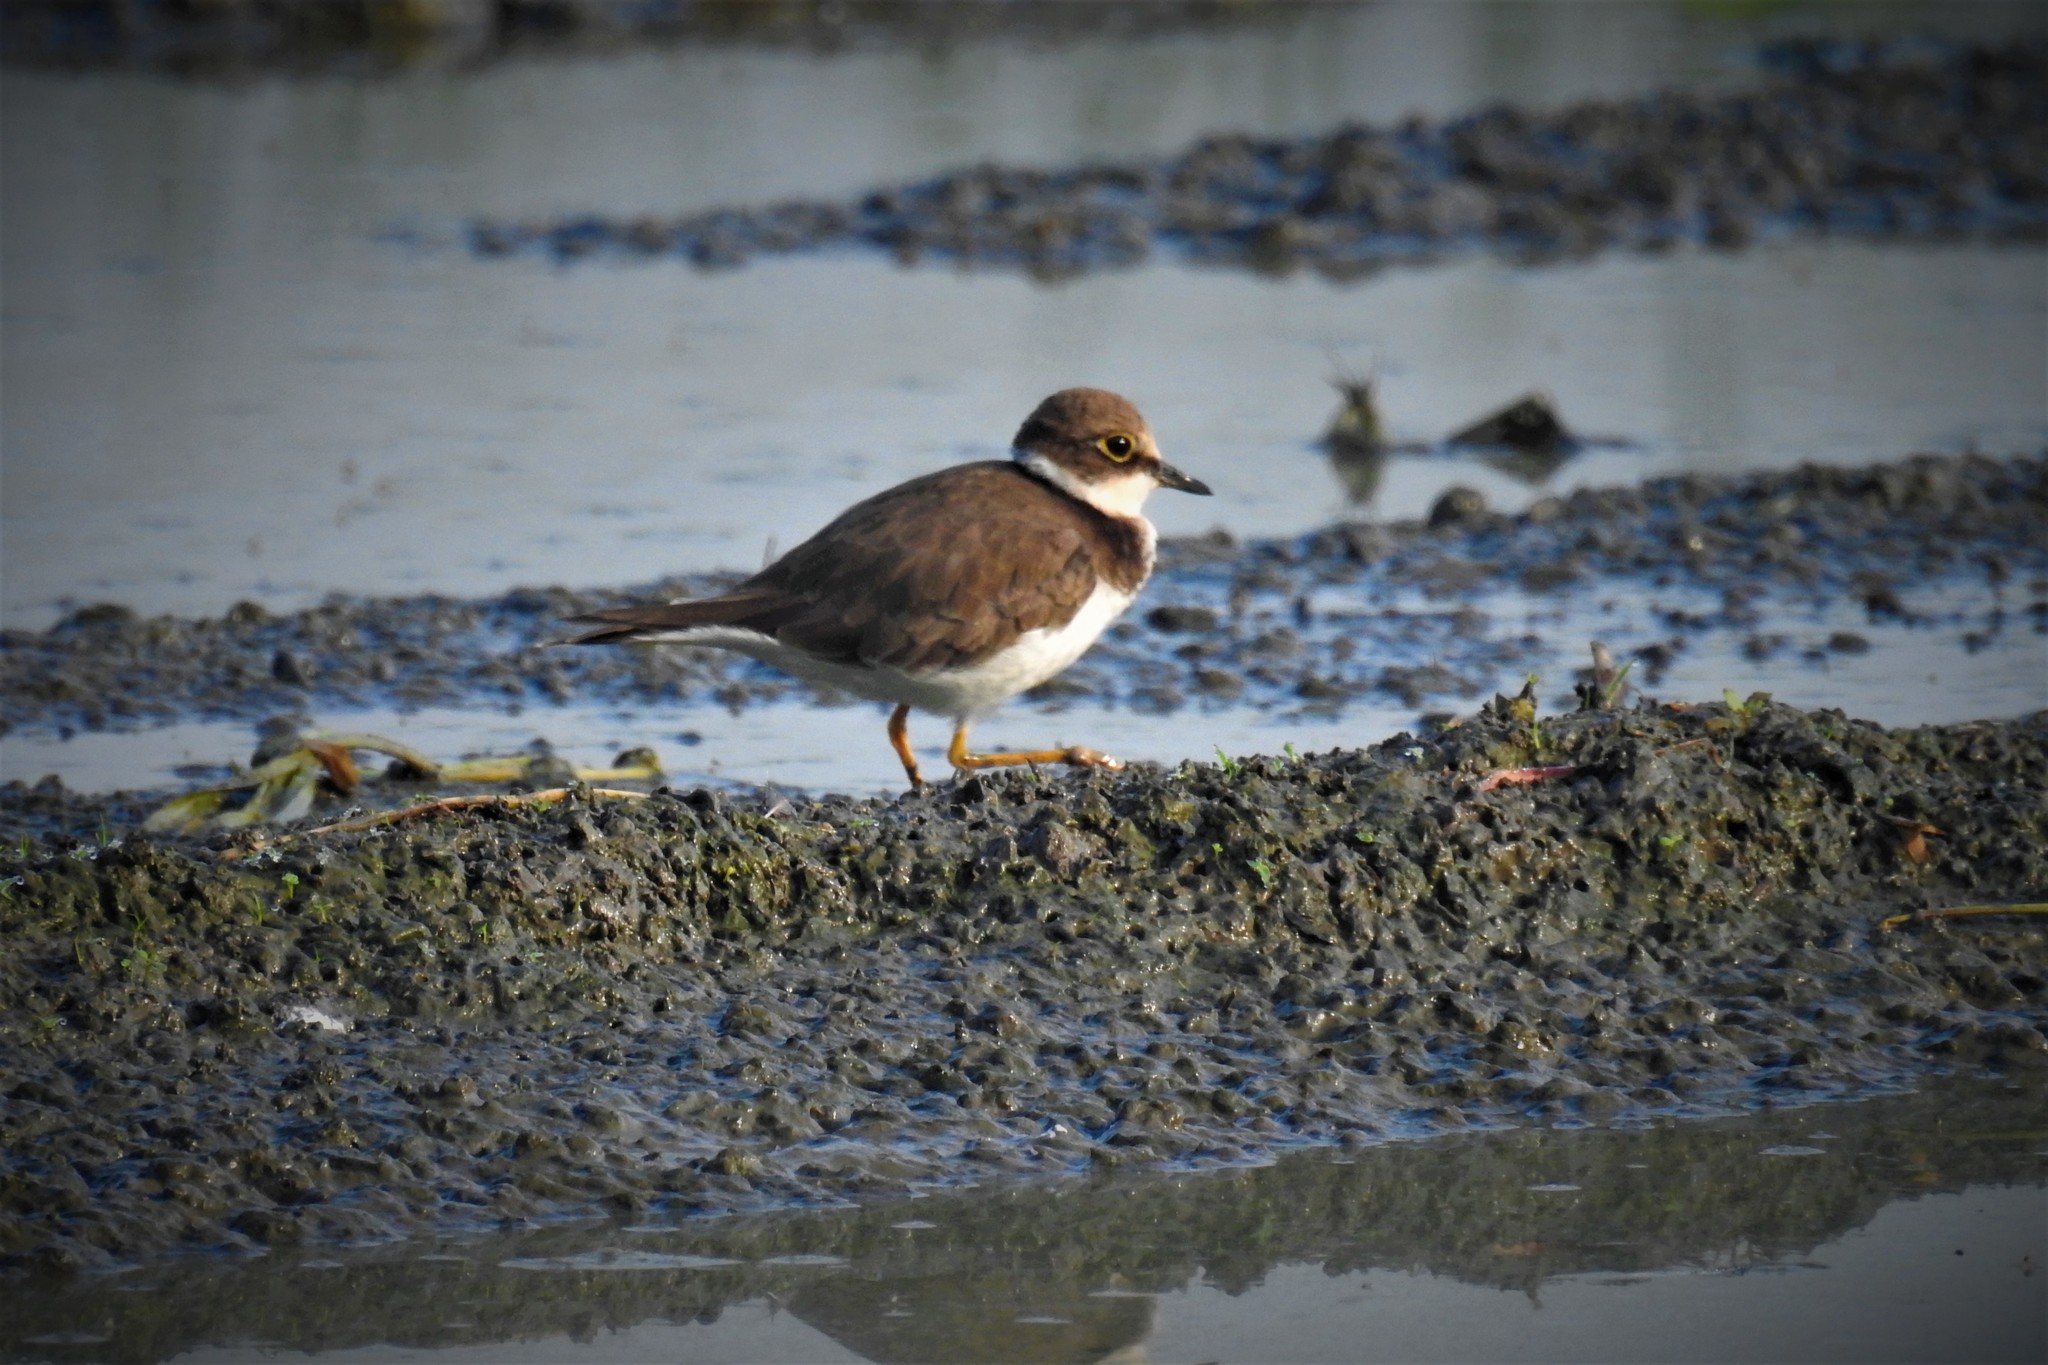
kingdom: Animalia
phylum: Chordata
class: Aves
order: Charadriiformes
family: Charadriidae
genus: Charadrius
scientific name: Charadrius dubius
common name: Little ringed plover
